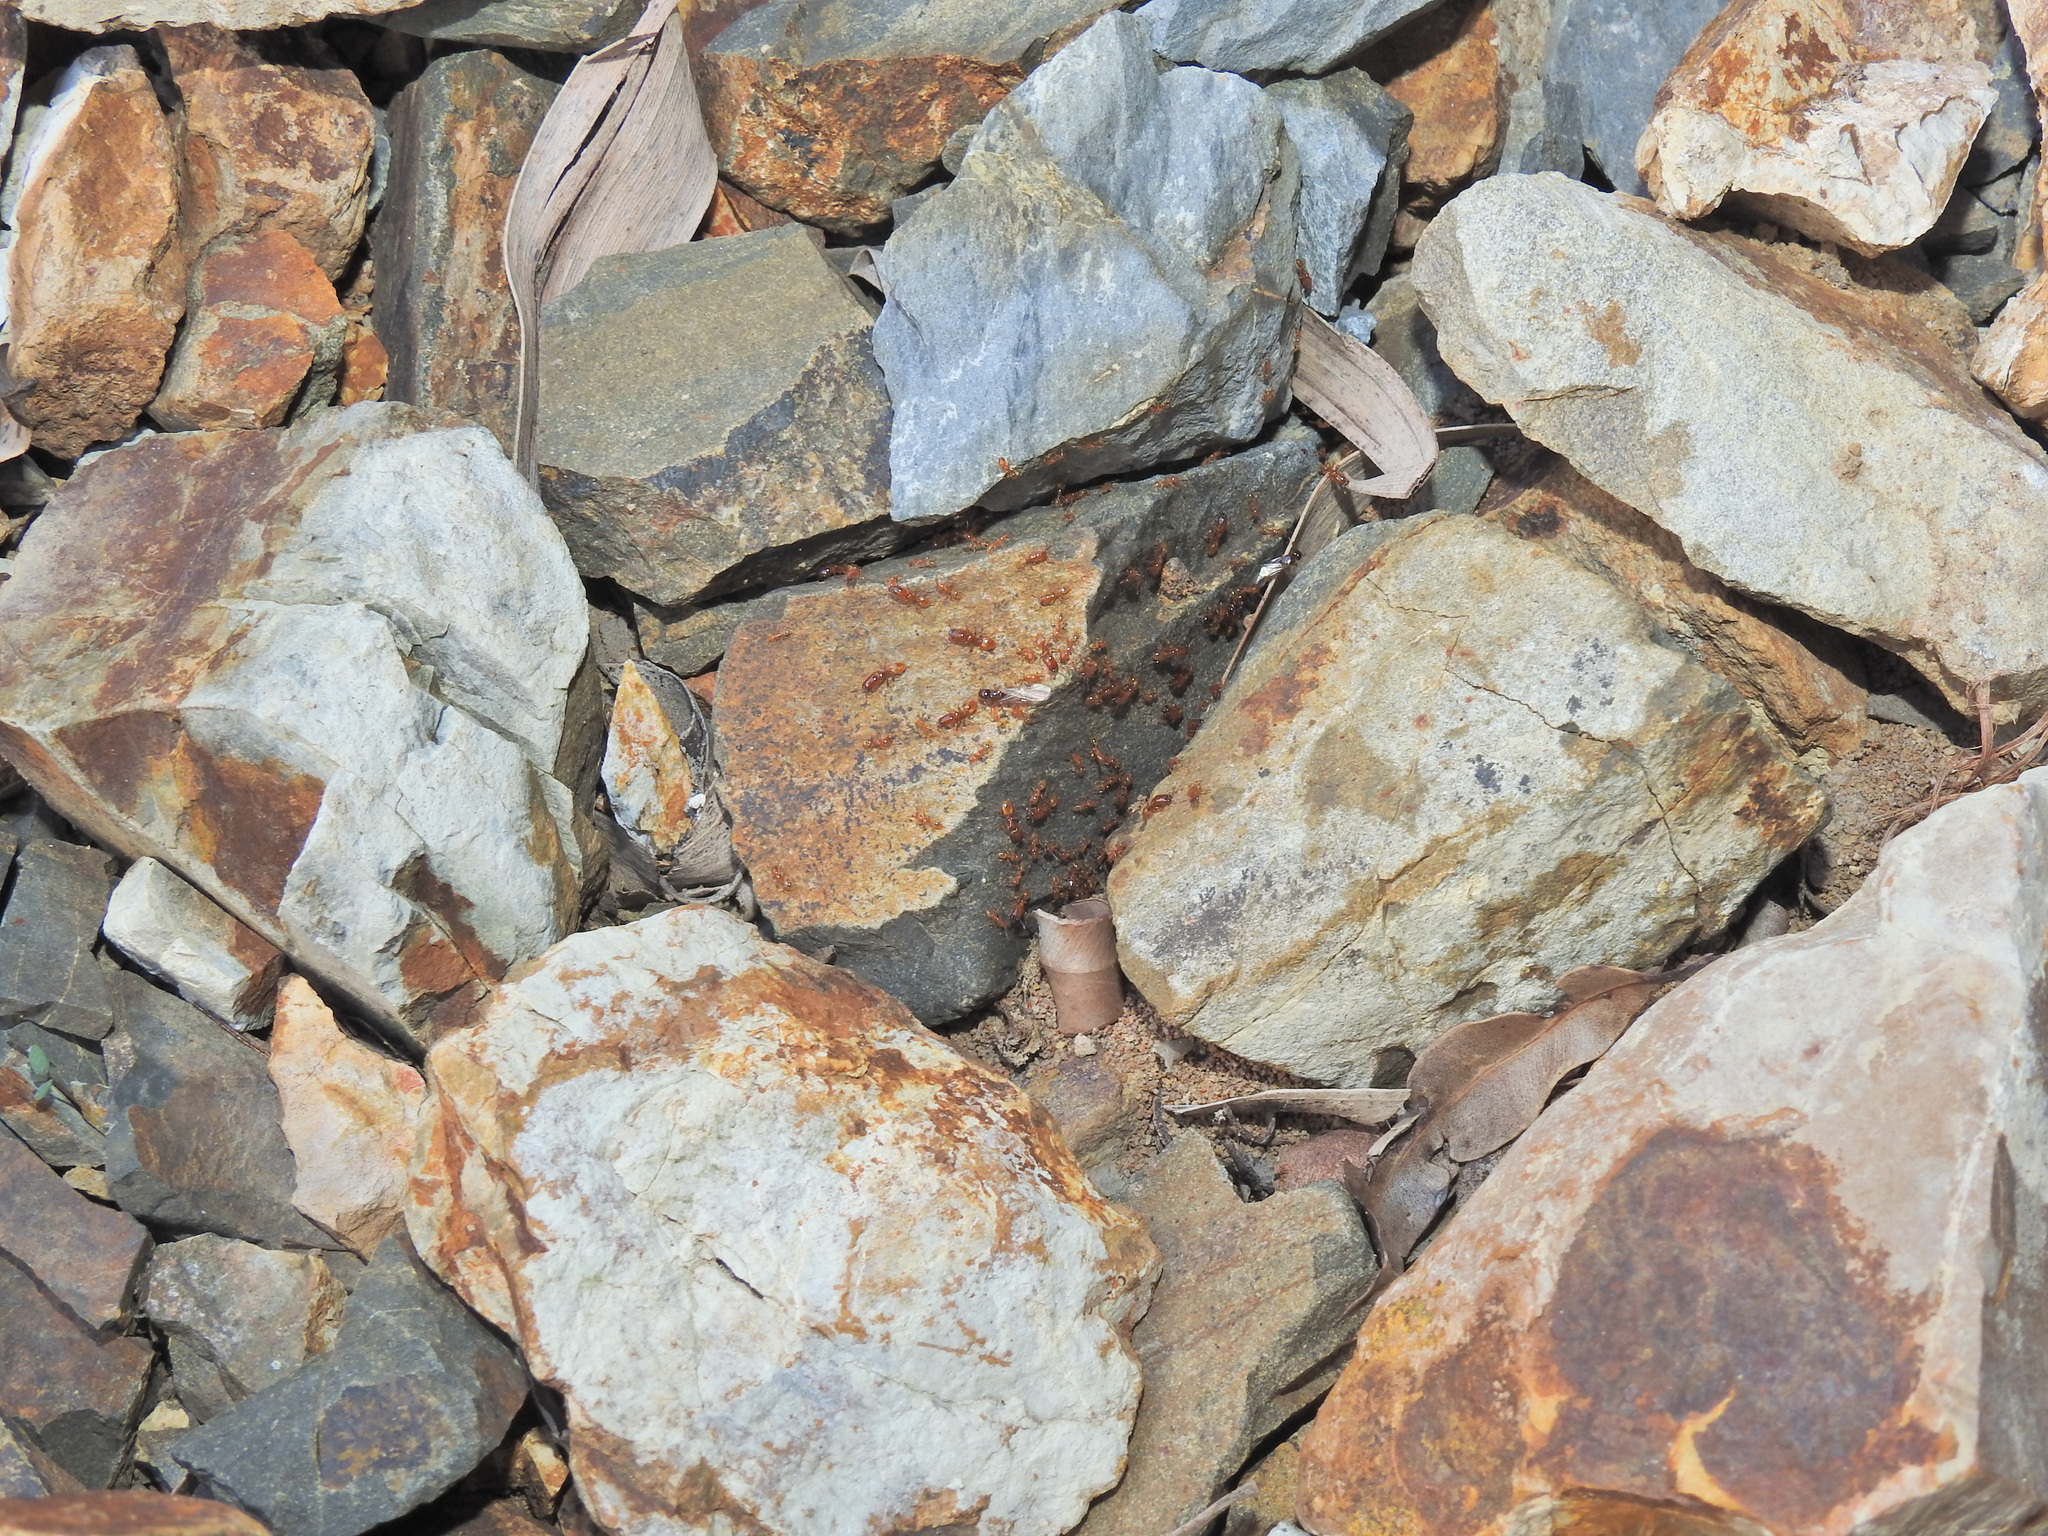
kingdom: Animalia
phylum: Arthropoda
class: Insecta
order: Hymenoptera
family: Formicidae
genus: Pheidole
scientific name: Pheidole
